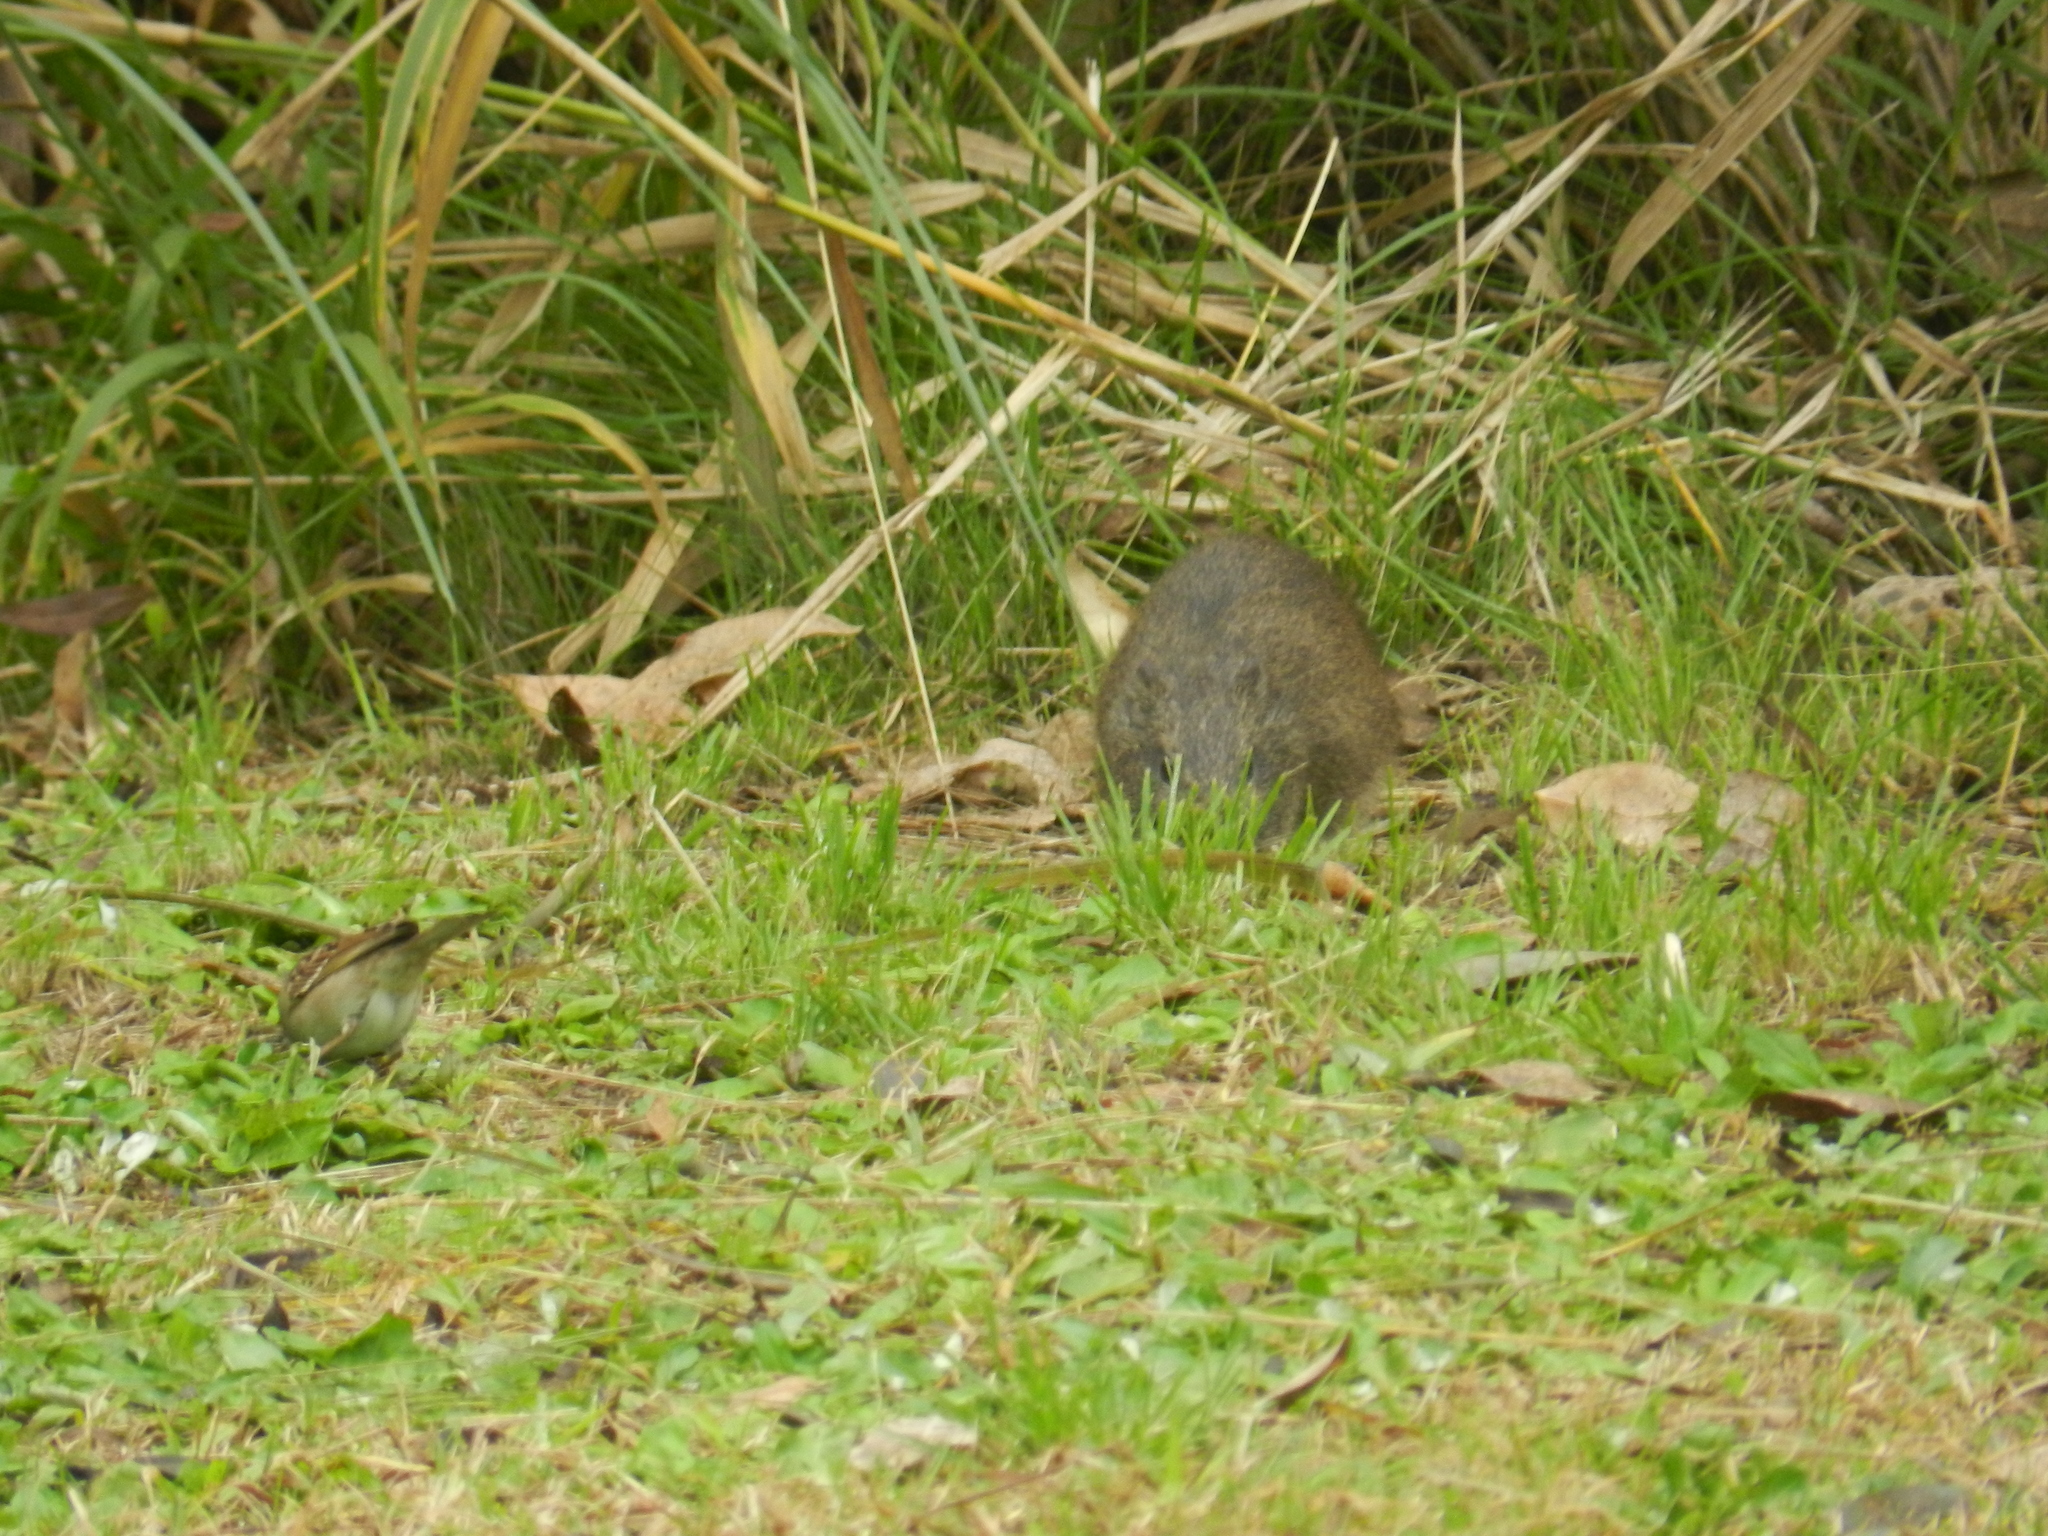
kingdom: Animalia
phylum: Chordata
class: Mammalia
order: Rodentia
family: Caviidae
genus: Cavia
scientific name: Cavia aperea
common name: Brazilian guinea pig
